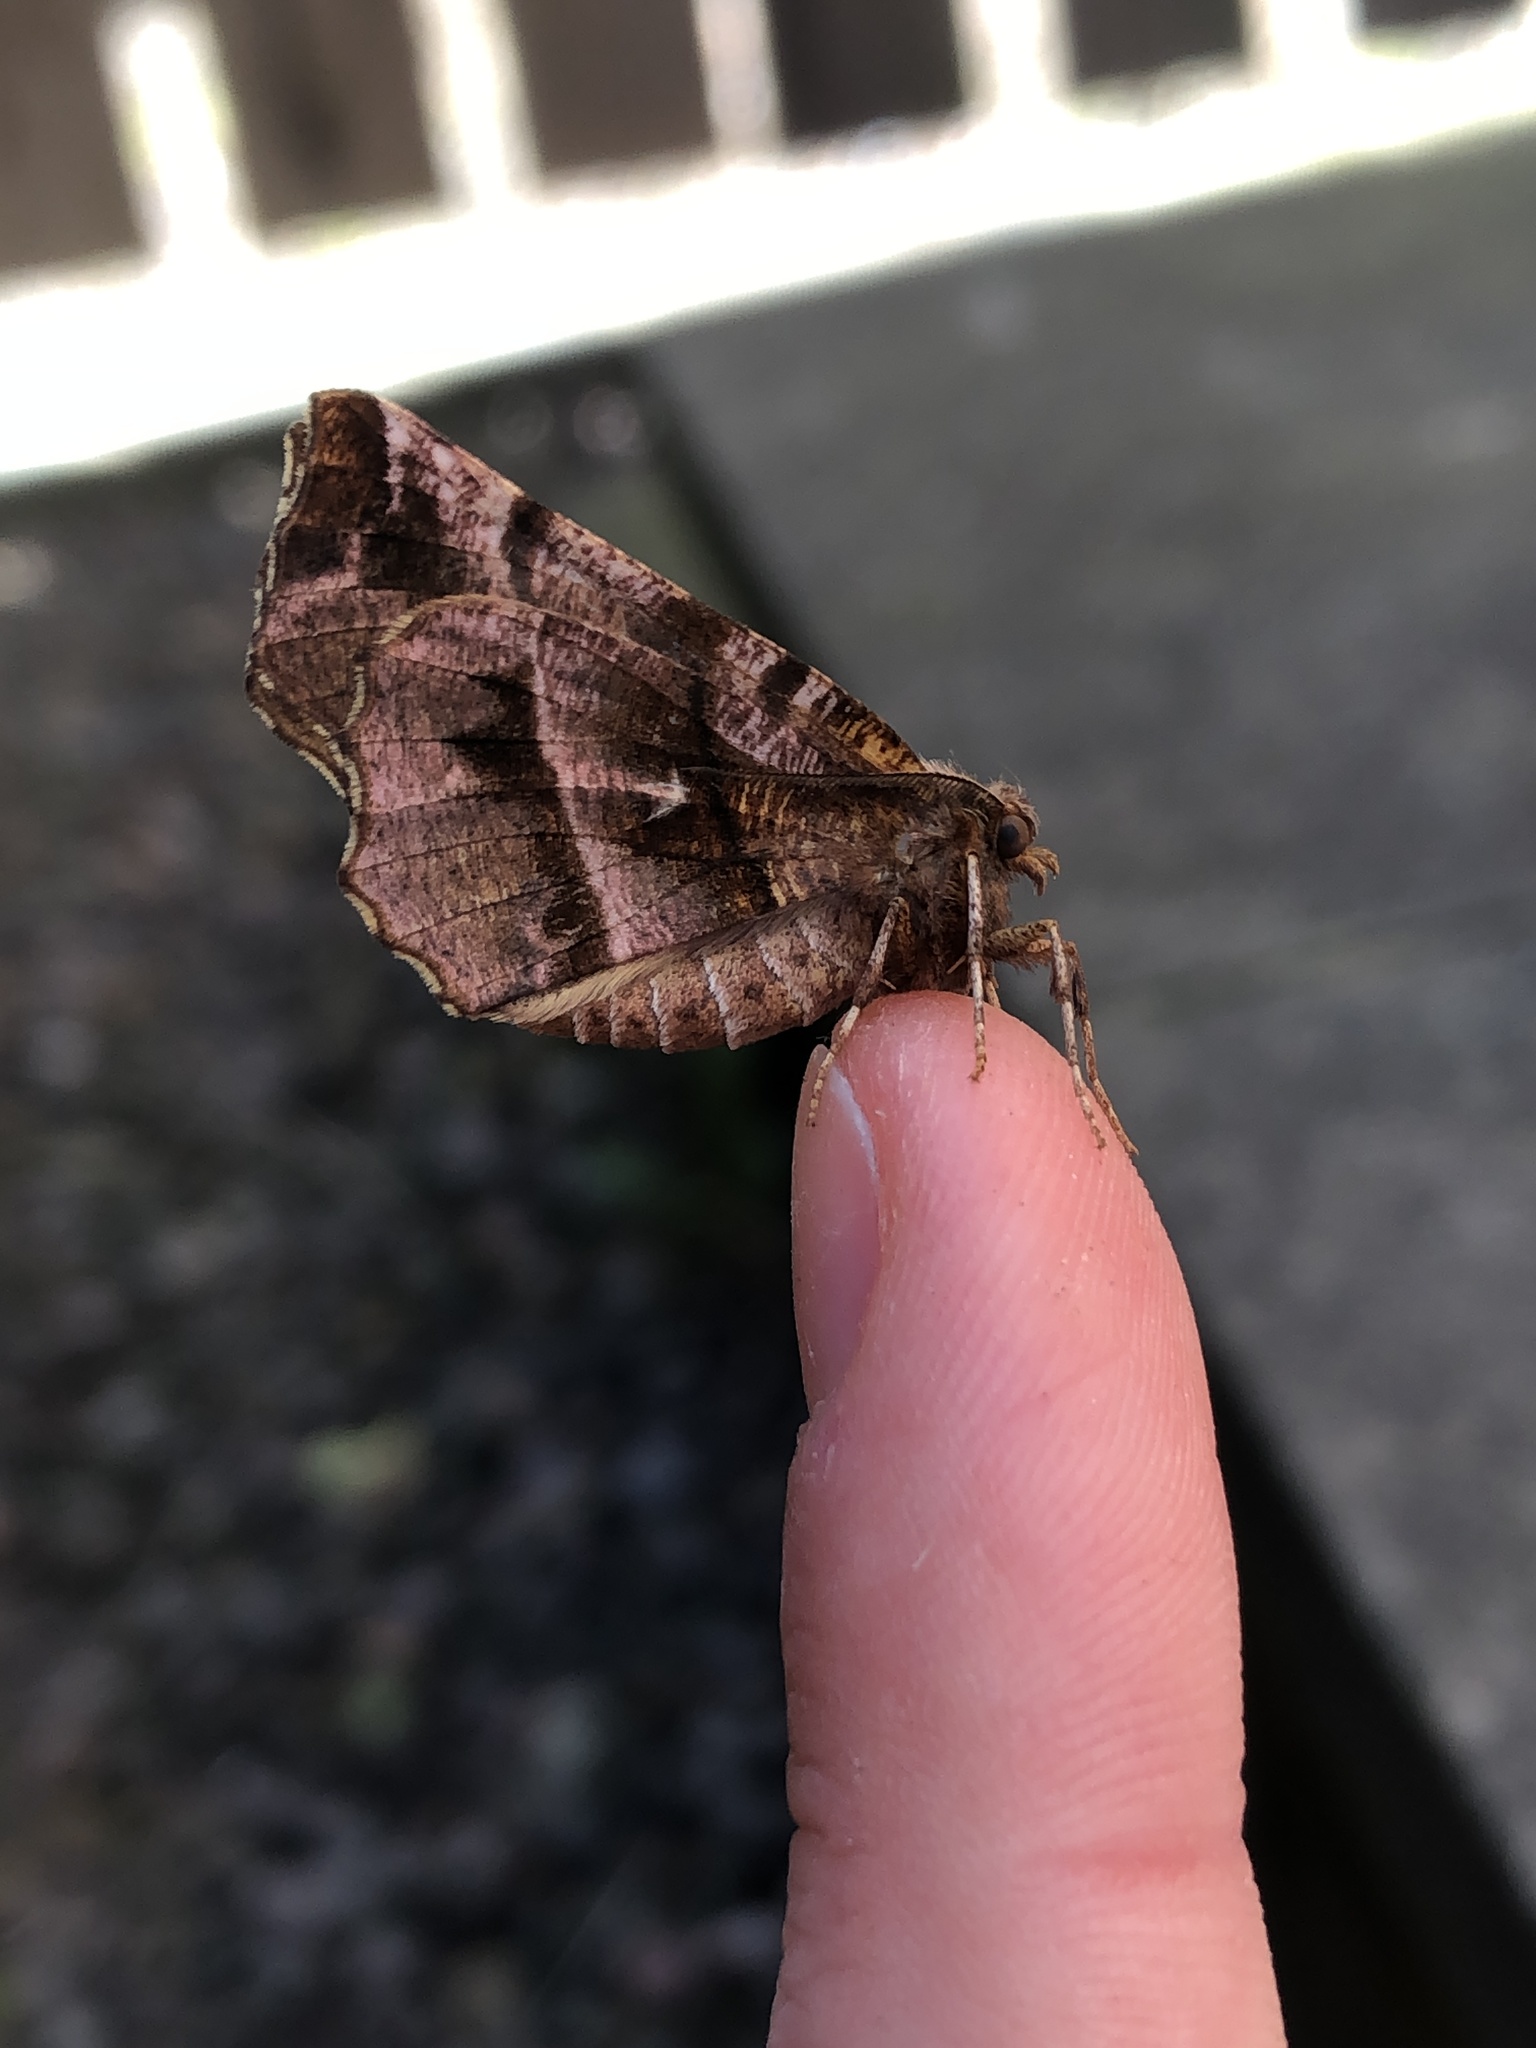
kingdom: Animalia
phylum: Arthropoda
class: Insecta
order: Lepidoptera
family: Geometridae
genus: Selenia
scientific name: Selenia dentaria
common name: Early thorn
